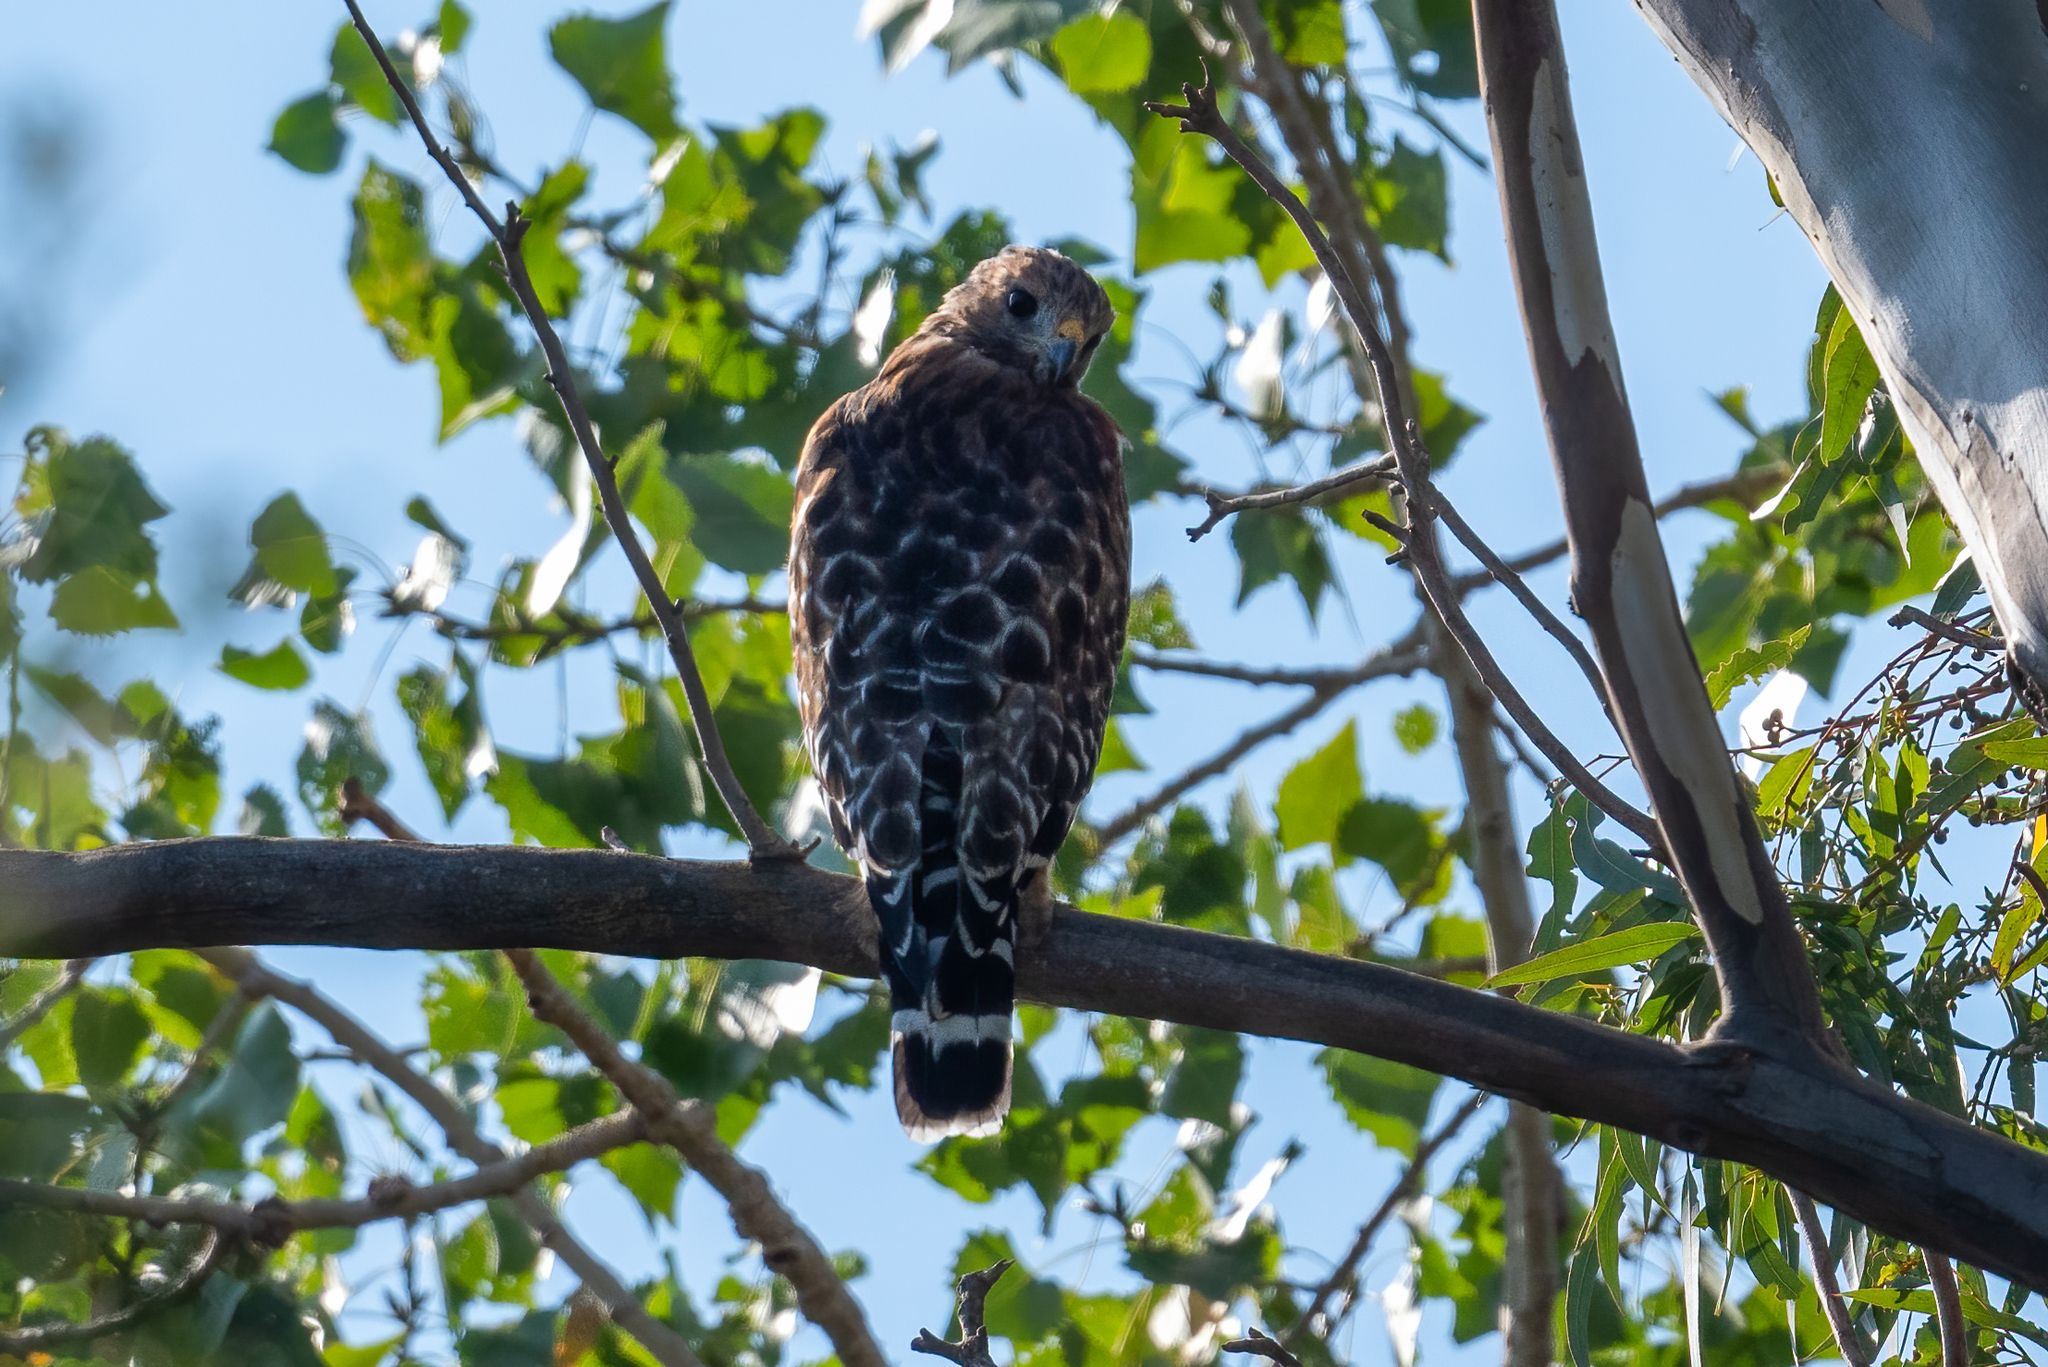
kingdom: Animalia
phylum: Chordata
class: Aves
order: Accipitriformes
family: Accipitridae
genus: Buteo
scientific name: Buteo lineatus
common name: Red-shouldered hawk
